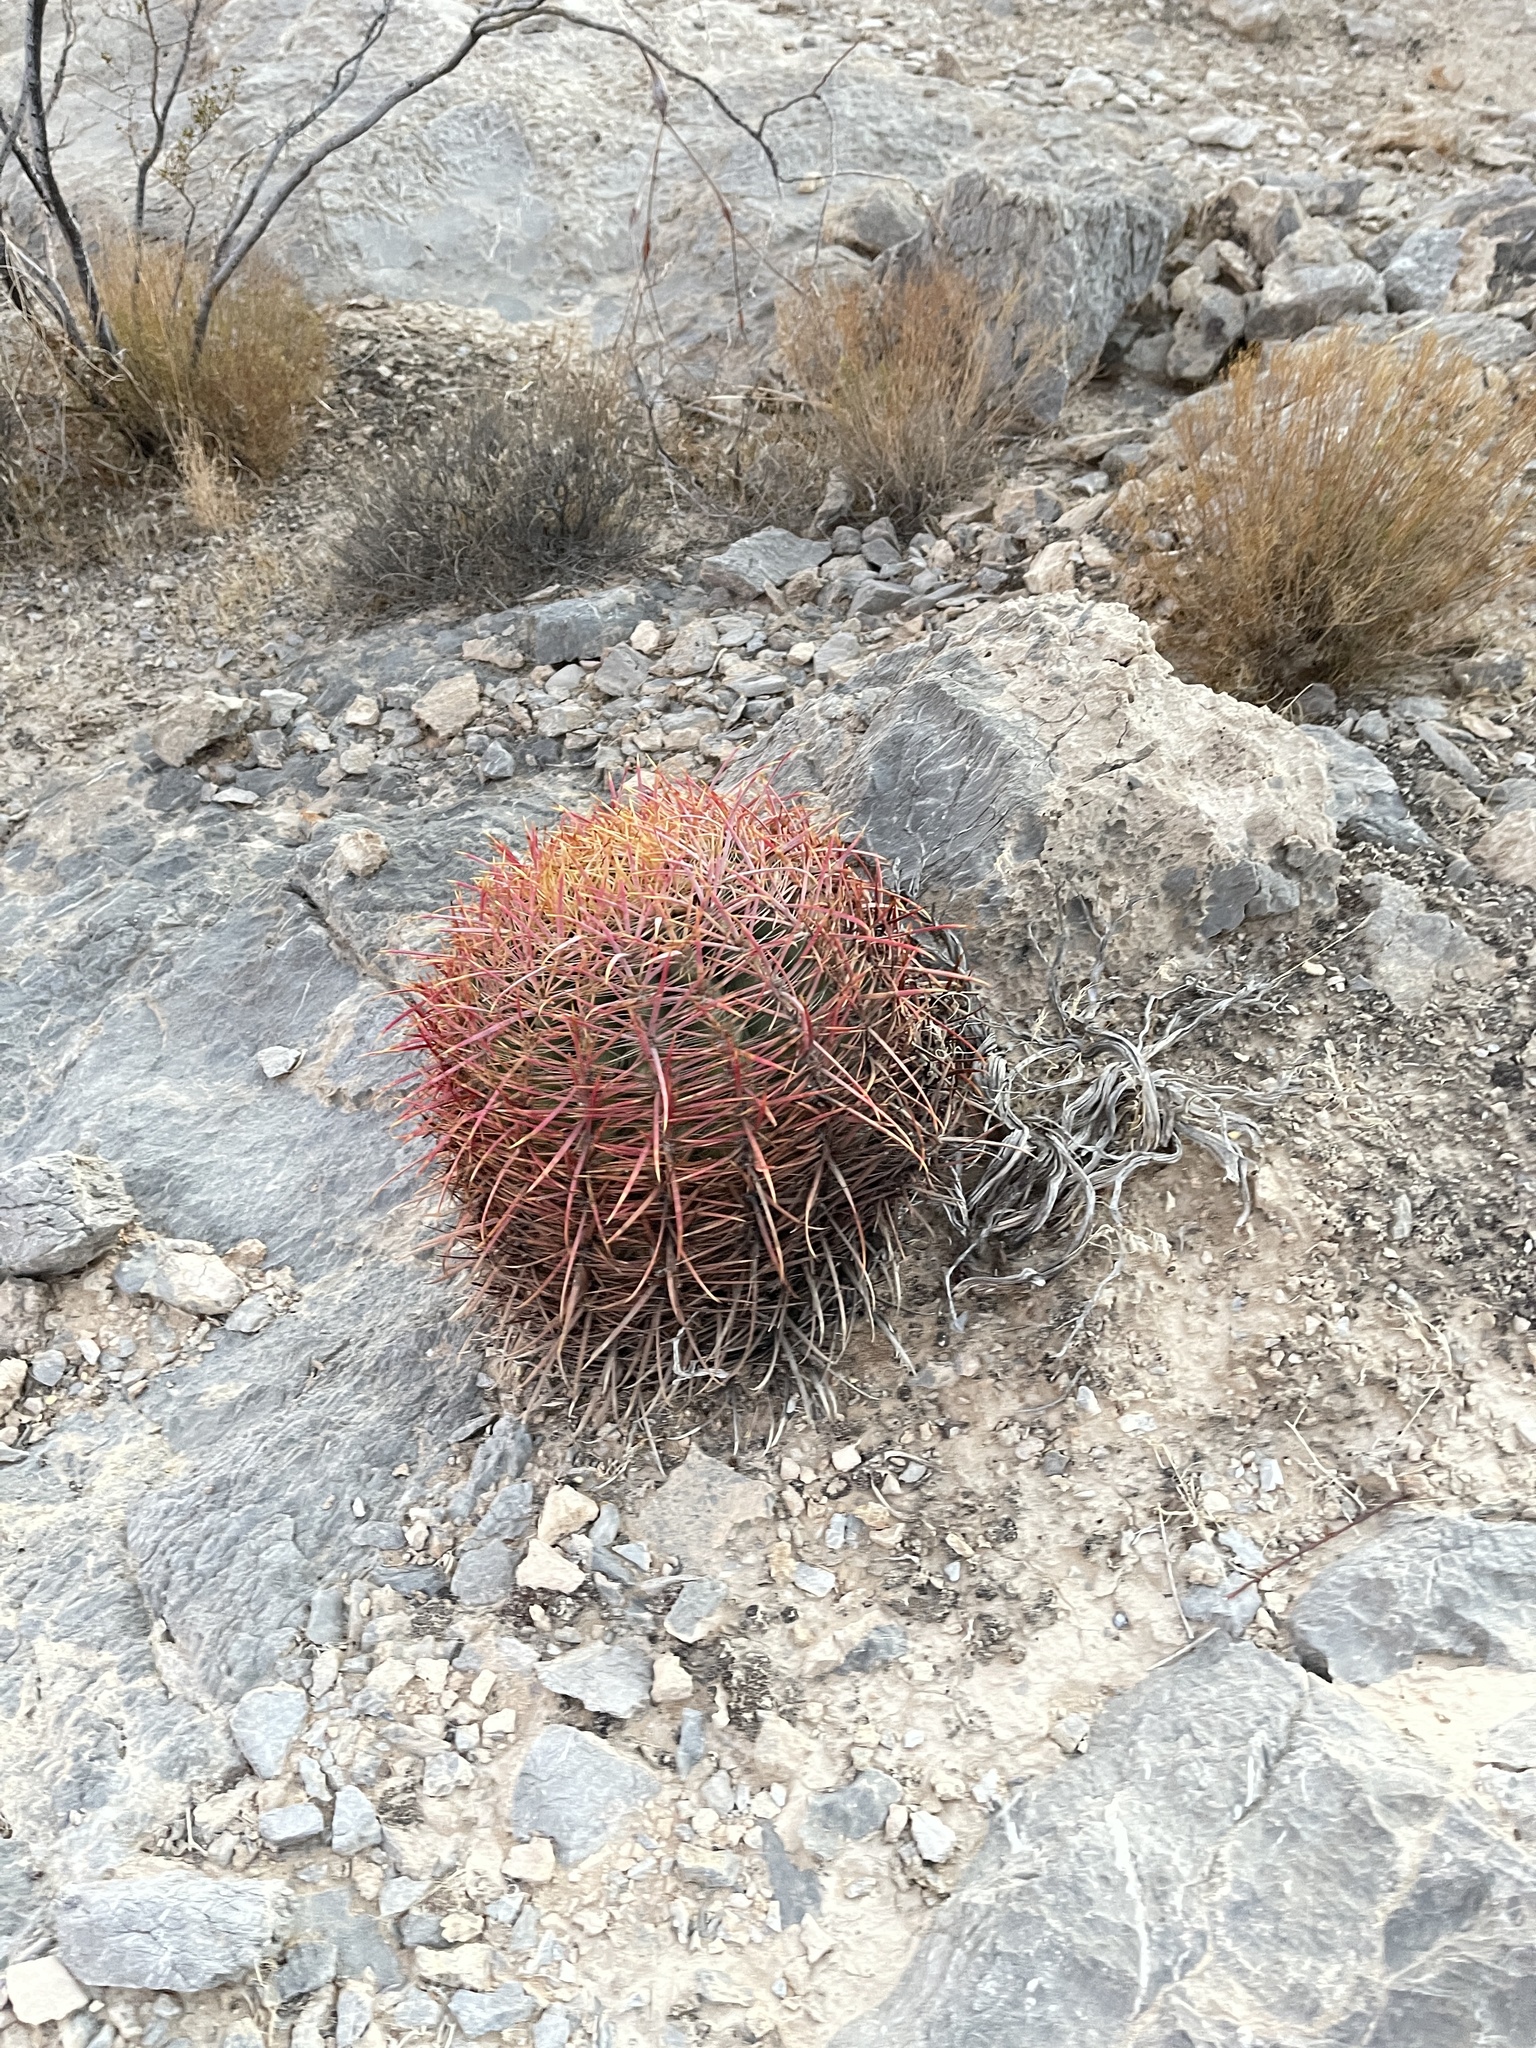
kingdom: Plantae
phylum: Tracheophyta
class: Magnoliopsida
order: Caryophyllales
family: Cactaceae
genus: Ferocactus
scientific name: Ferocactus cylindraceus
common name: California barrel cactus
